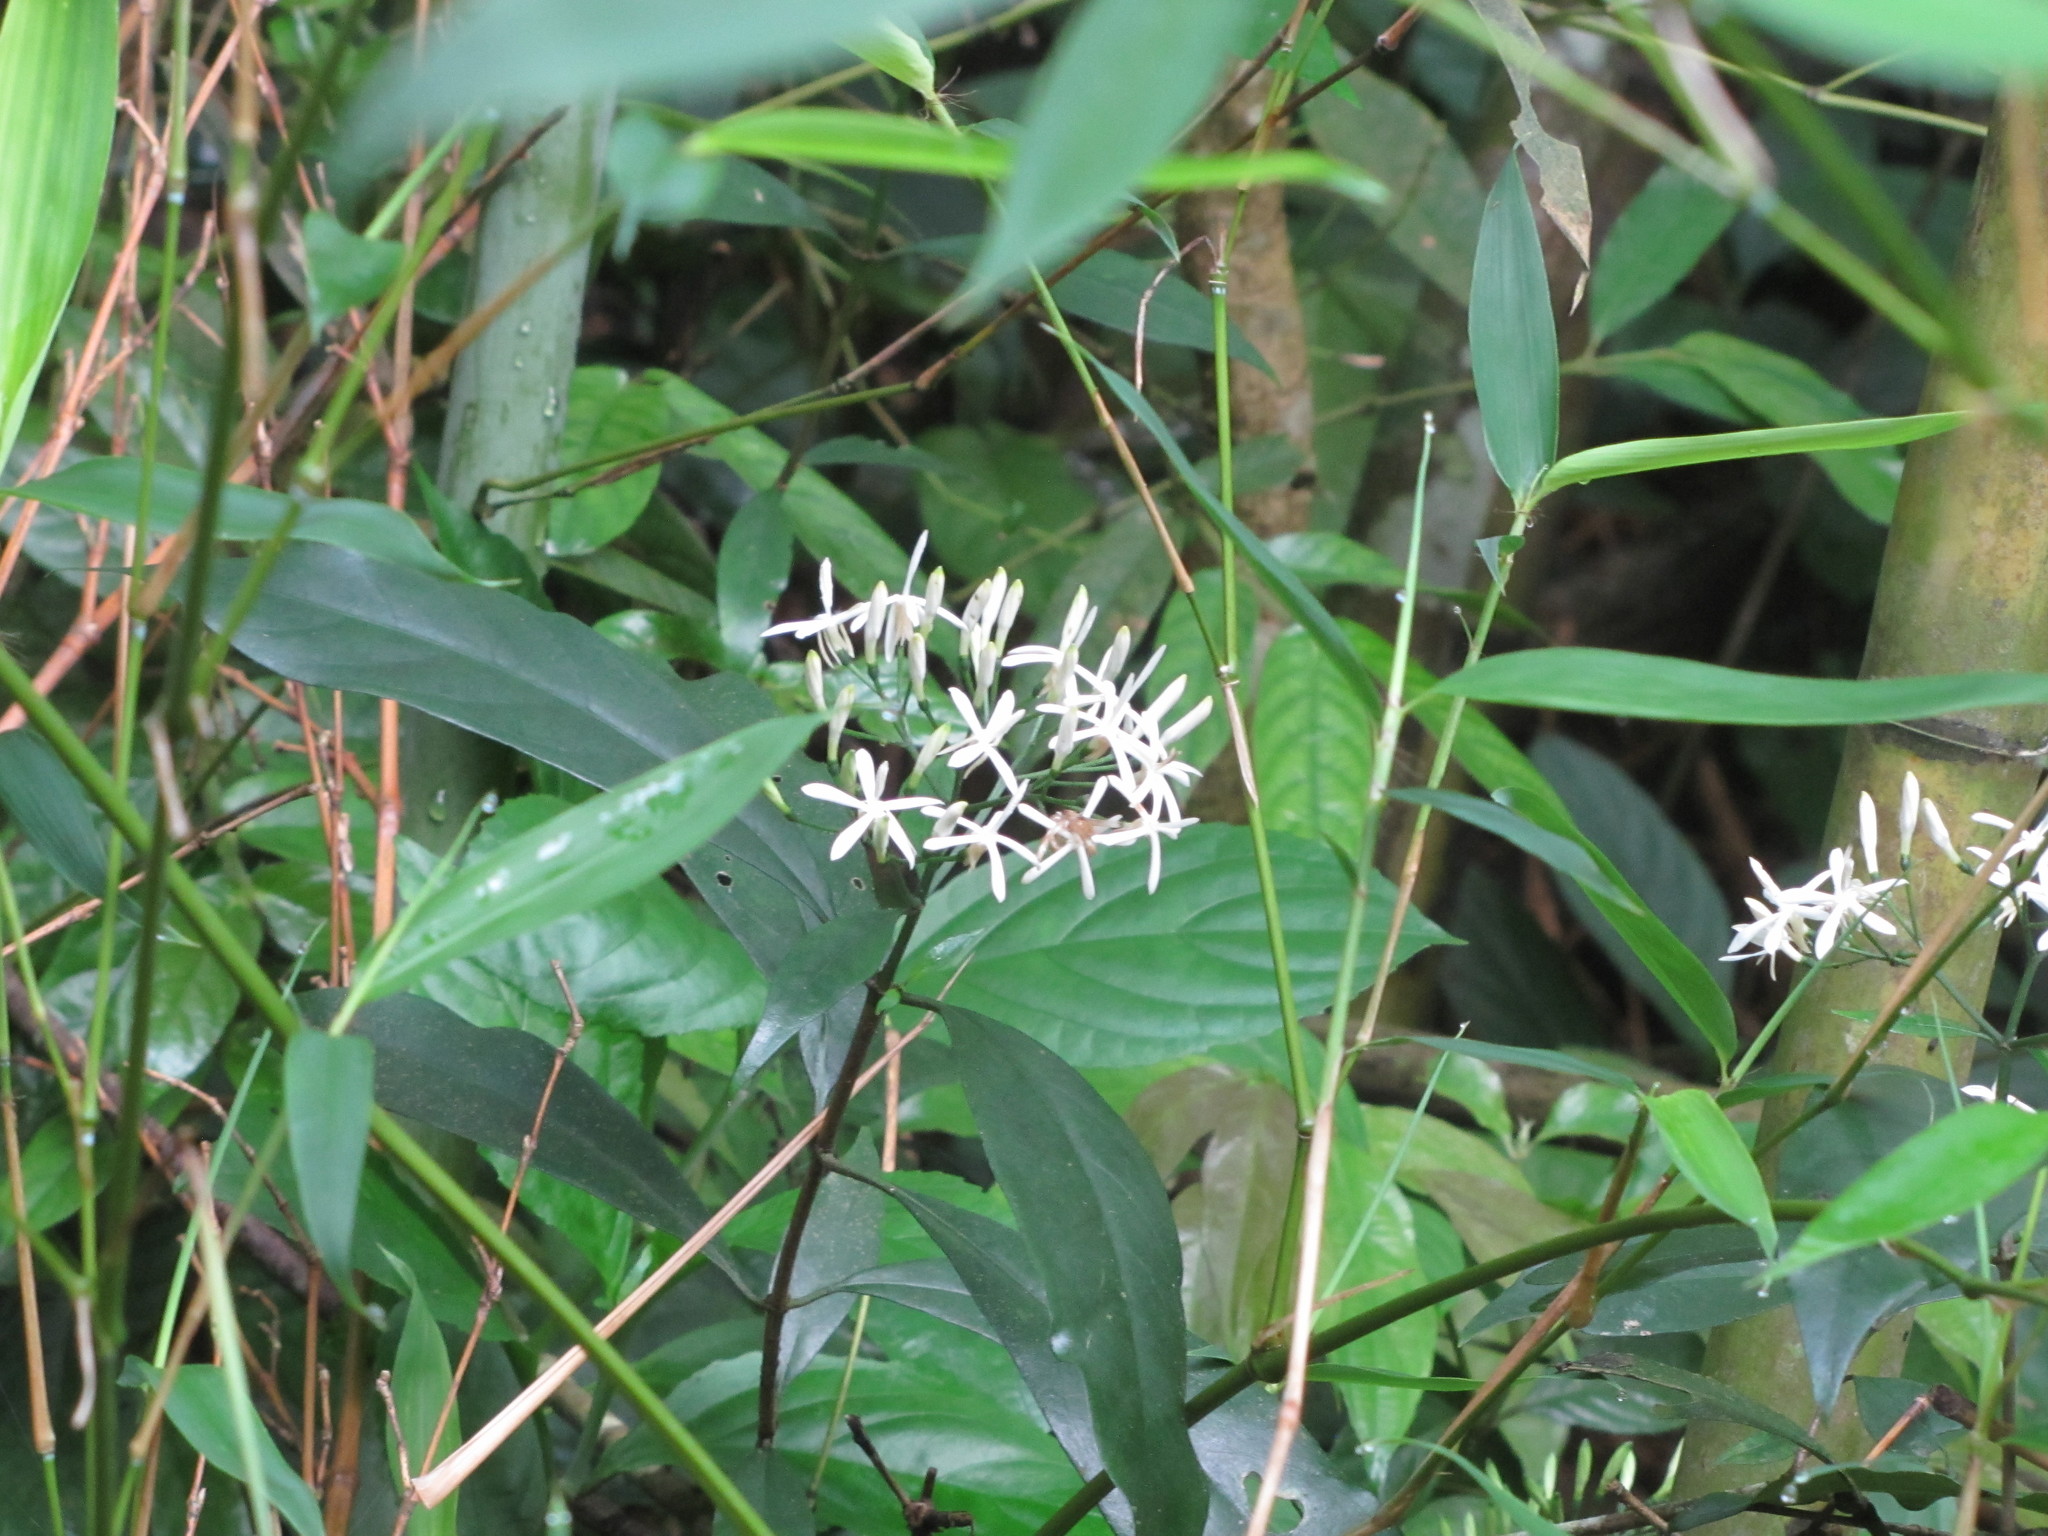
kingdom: Plantae
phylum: Tracheophyta
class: Magnoliopsida
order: Gentianales
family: Rubiaceae
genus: Tarenna
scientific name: Tarenna gracilipes
